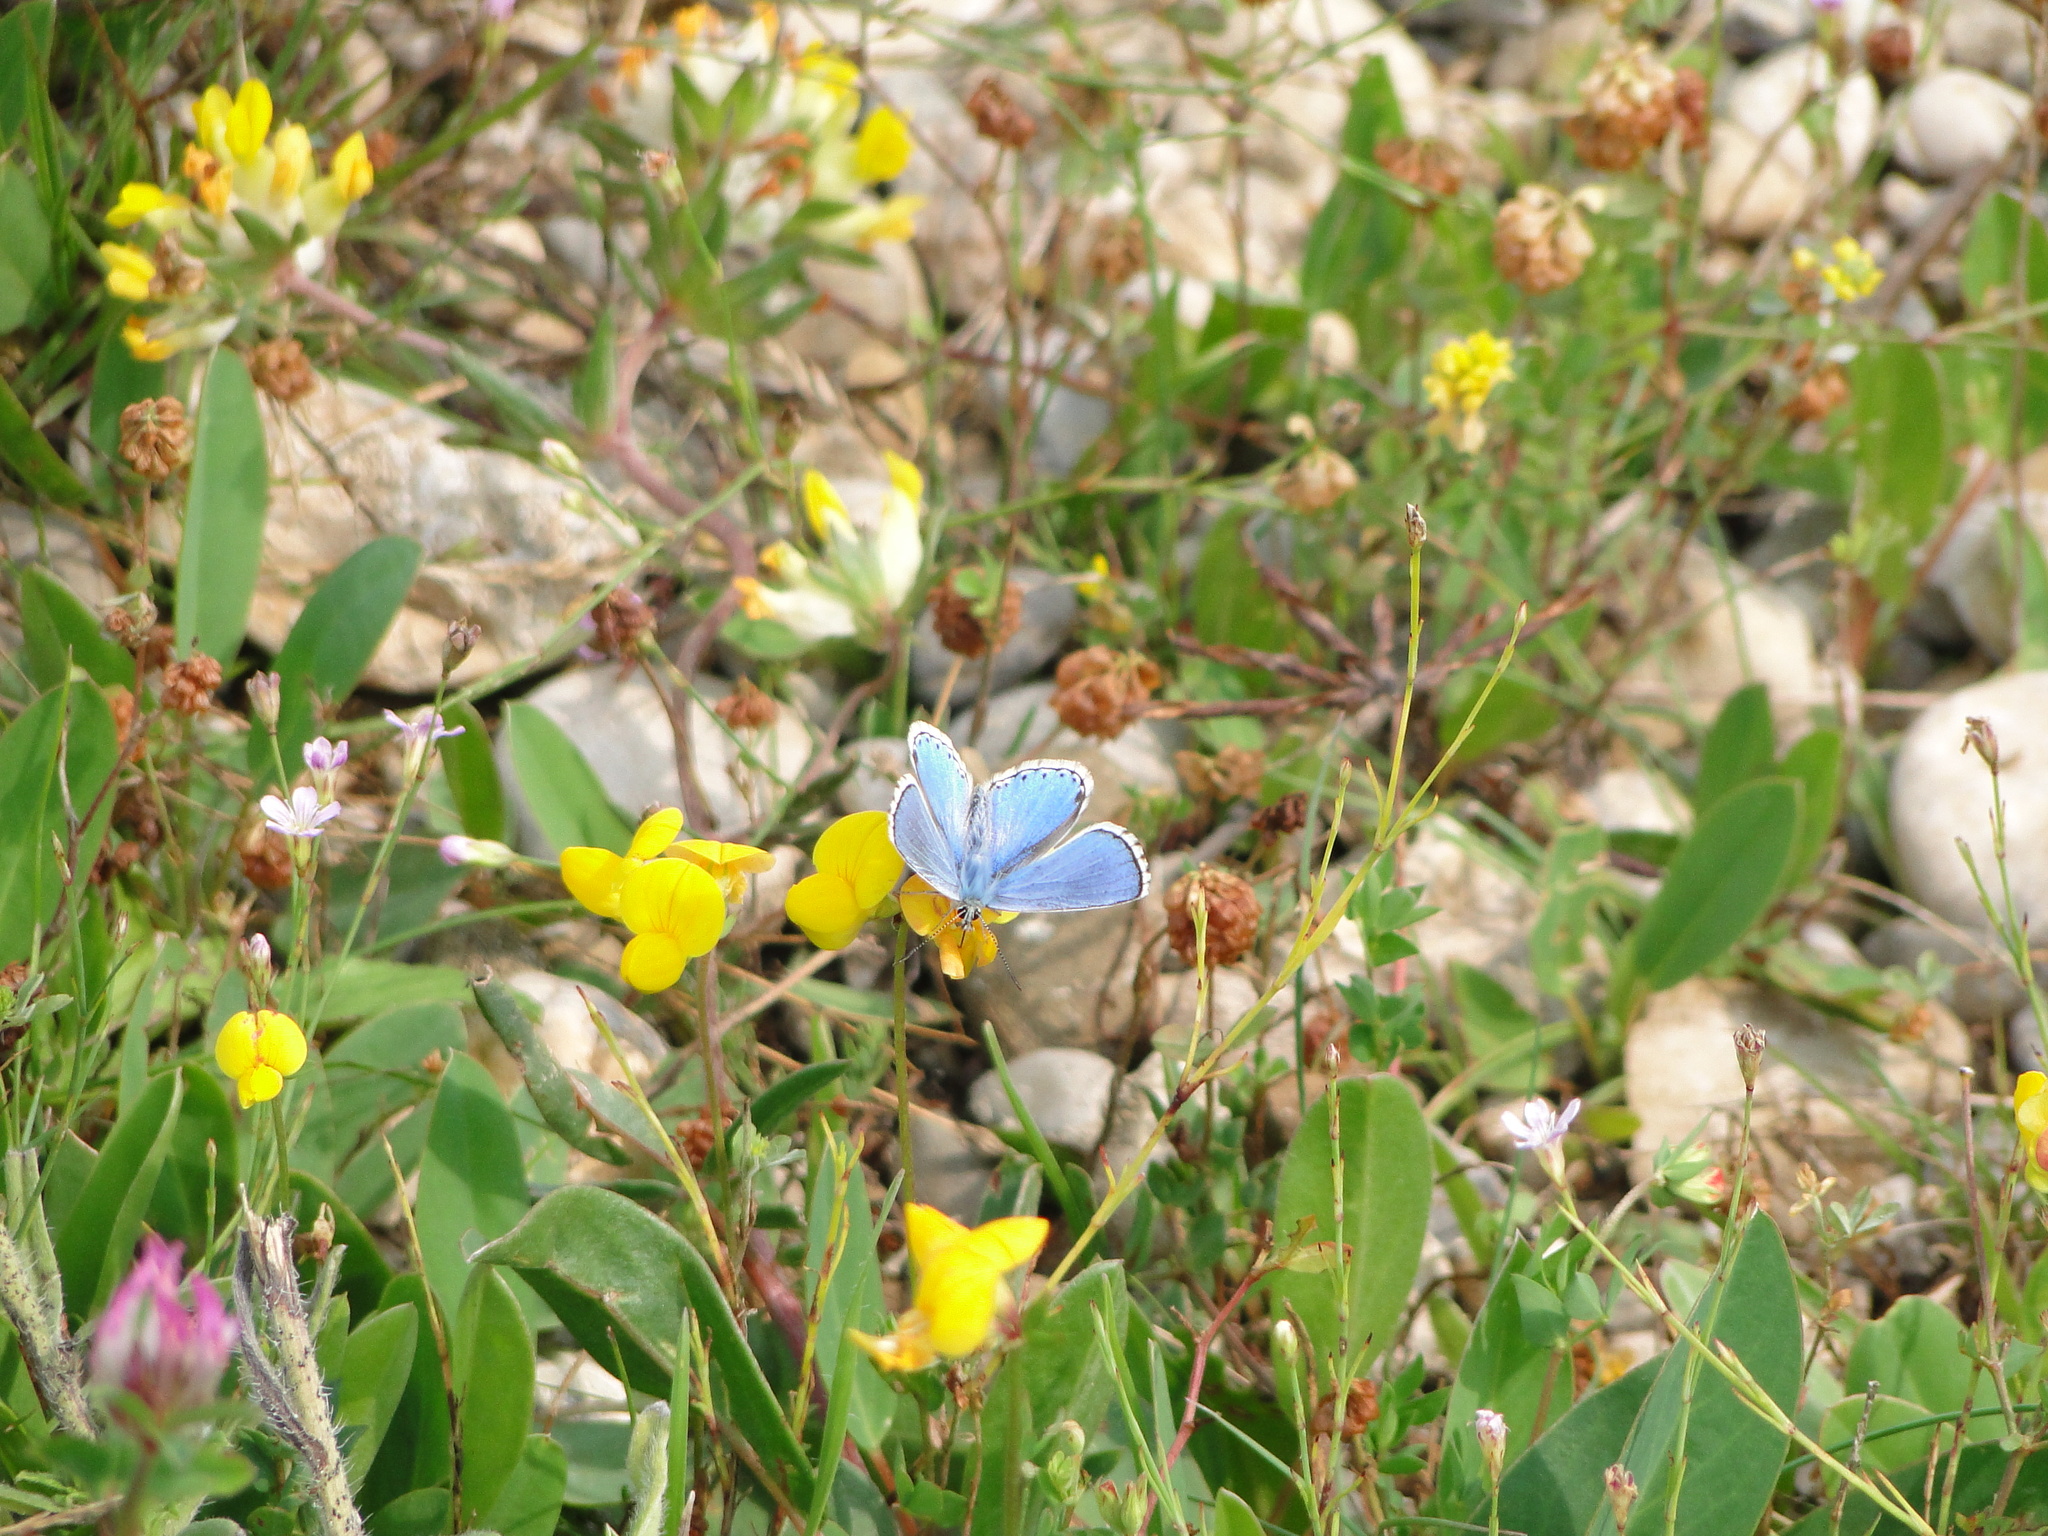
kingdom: Animalia
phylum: Arthropoda
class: Insecta
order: Lepidoptera
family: Lycaenidae
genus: Lysandra
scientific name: Lysandra bellargus
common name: Adonis blue
